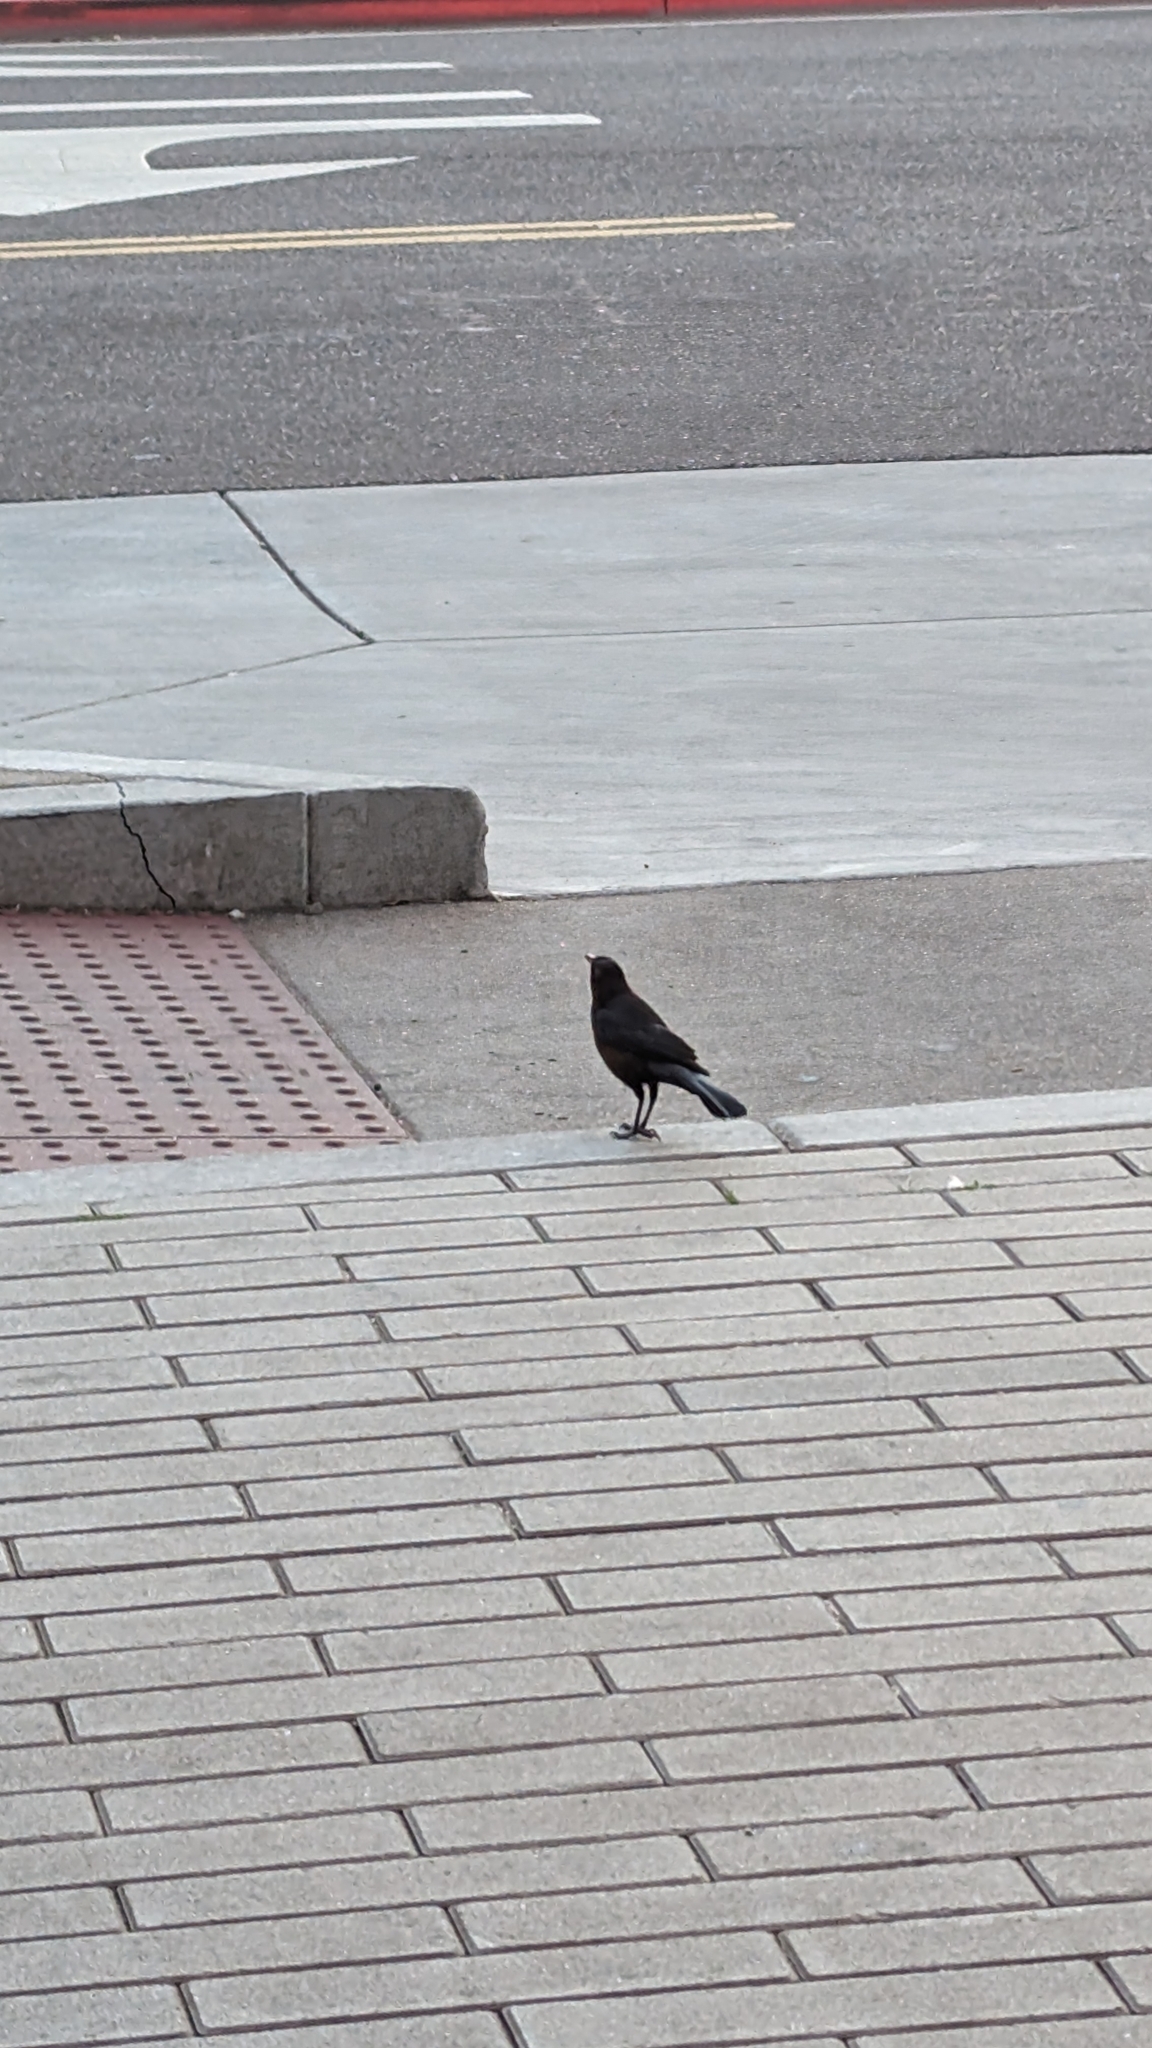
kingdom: Animalia
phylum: Chordata
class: Aves
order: Passeriformes
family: Icteridae
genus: Quiscalus
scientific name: Quiscalus mexicanus
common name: Great-tailed grackle
